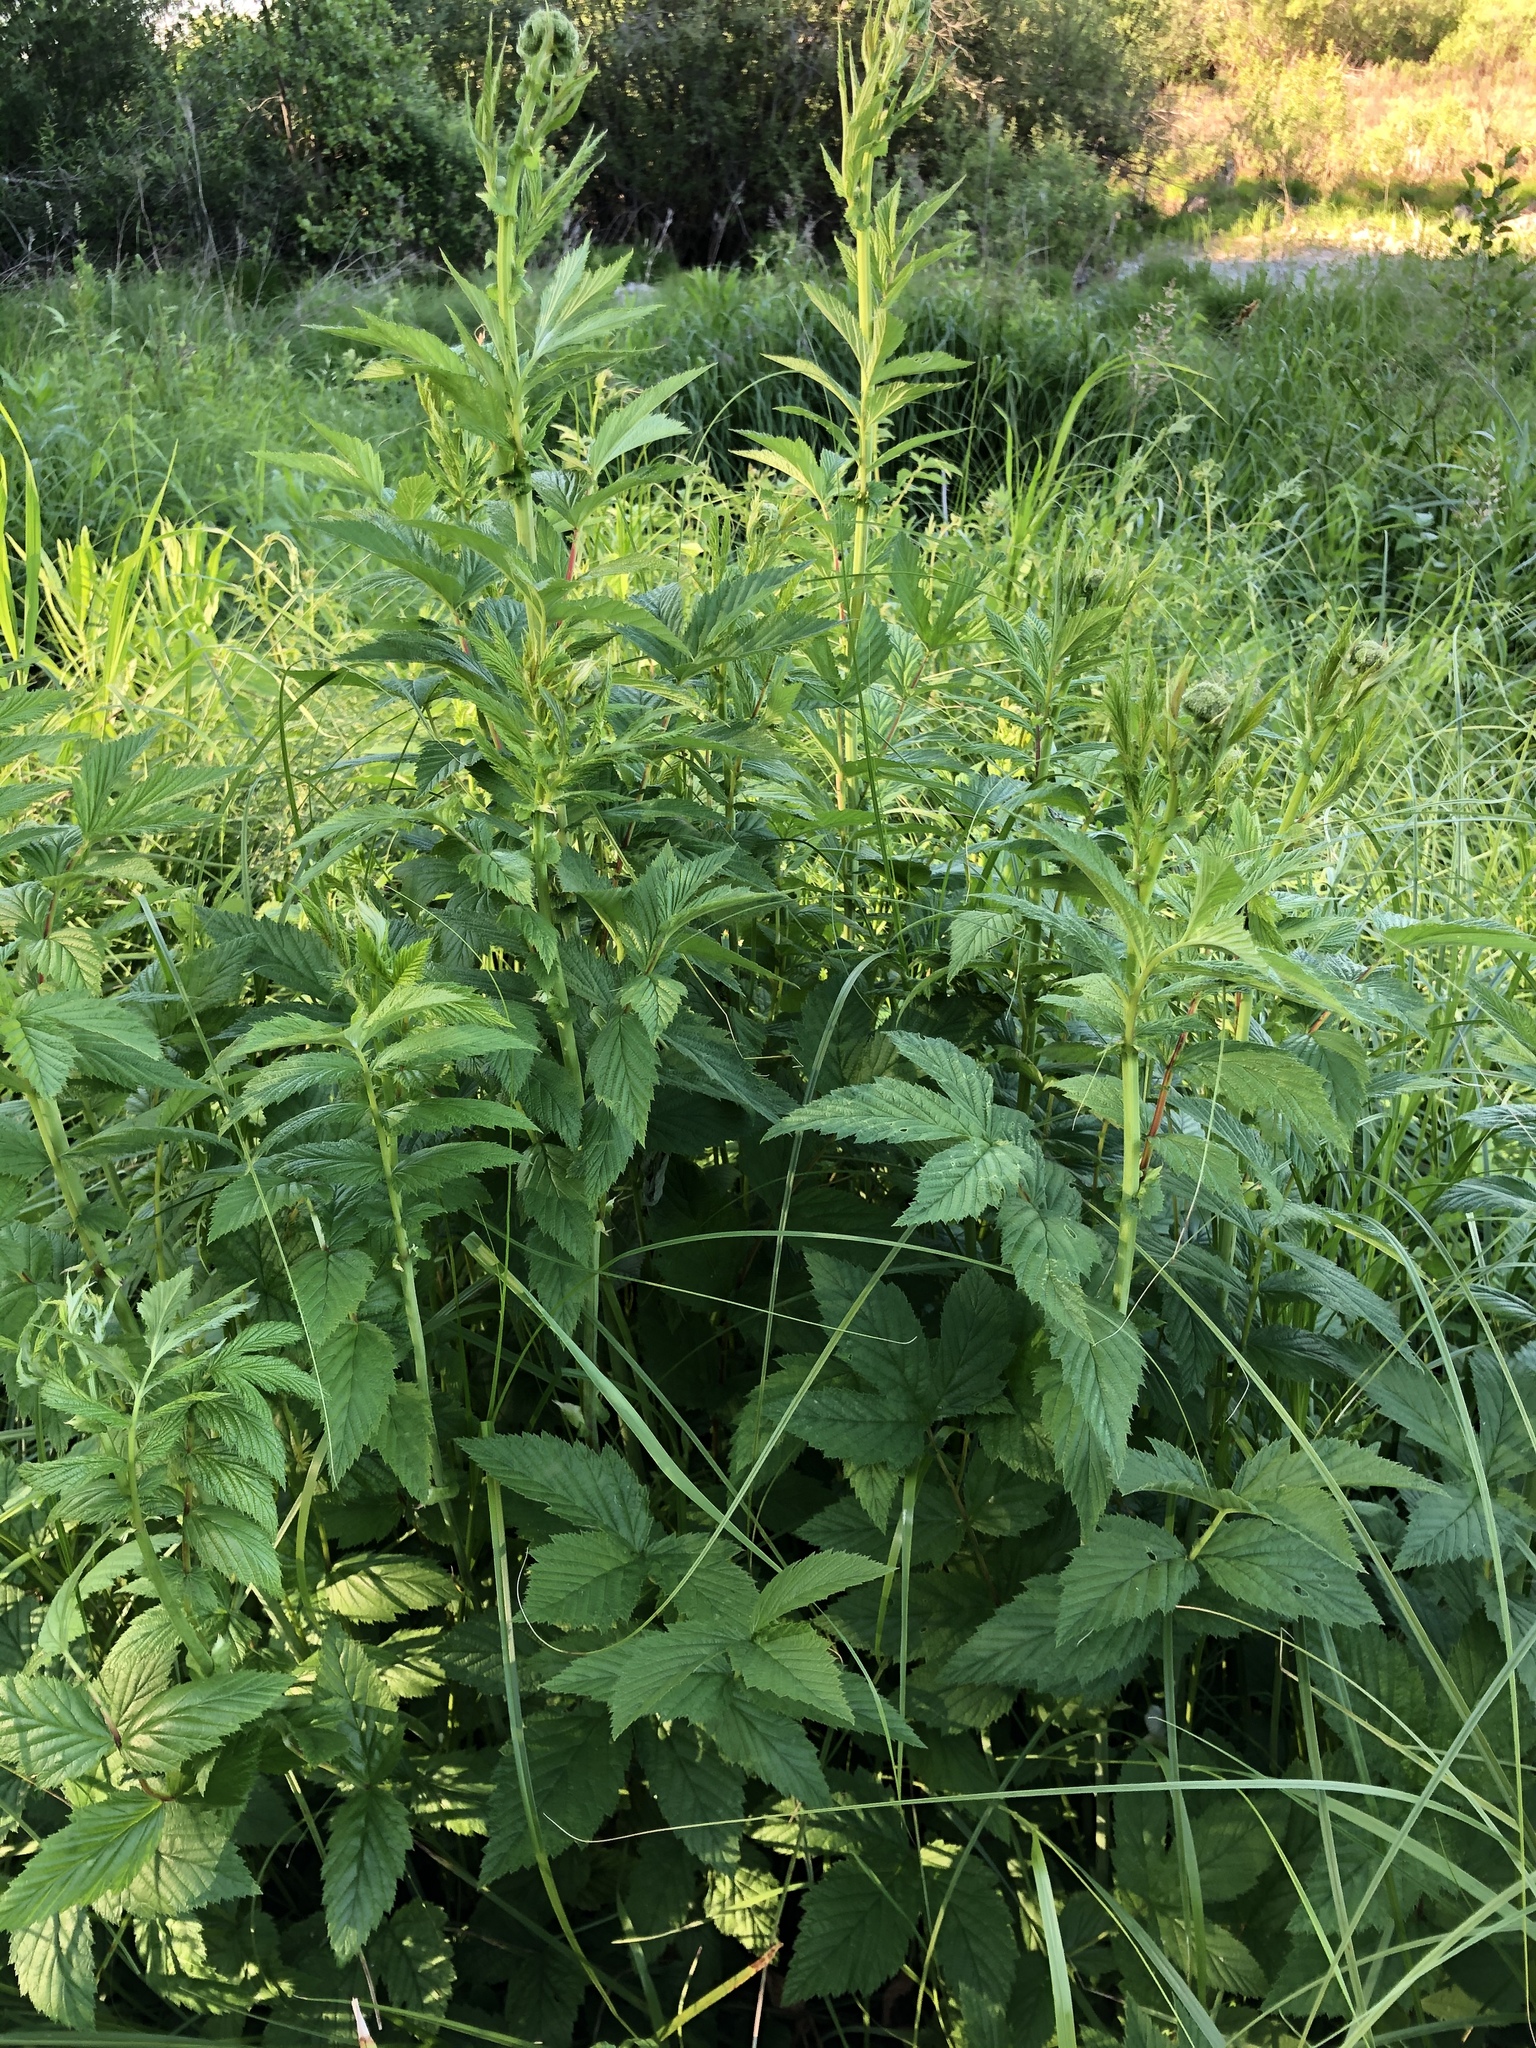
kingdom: Plantae
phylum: Tracheophyta
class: Magnoliopsida
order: Rosales
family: Rosaceae
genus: Filipendula
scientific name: Filipendula ulmaria
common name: Meadowsweet
